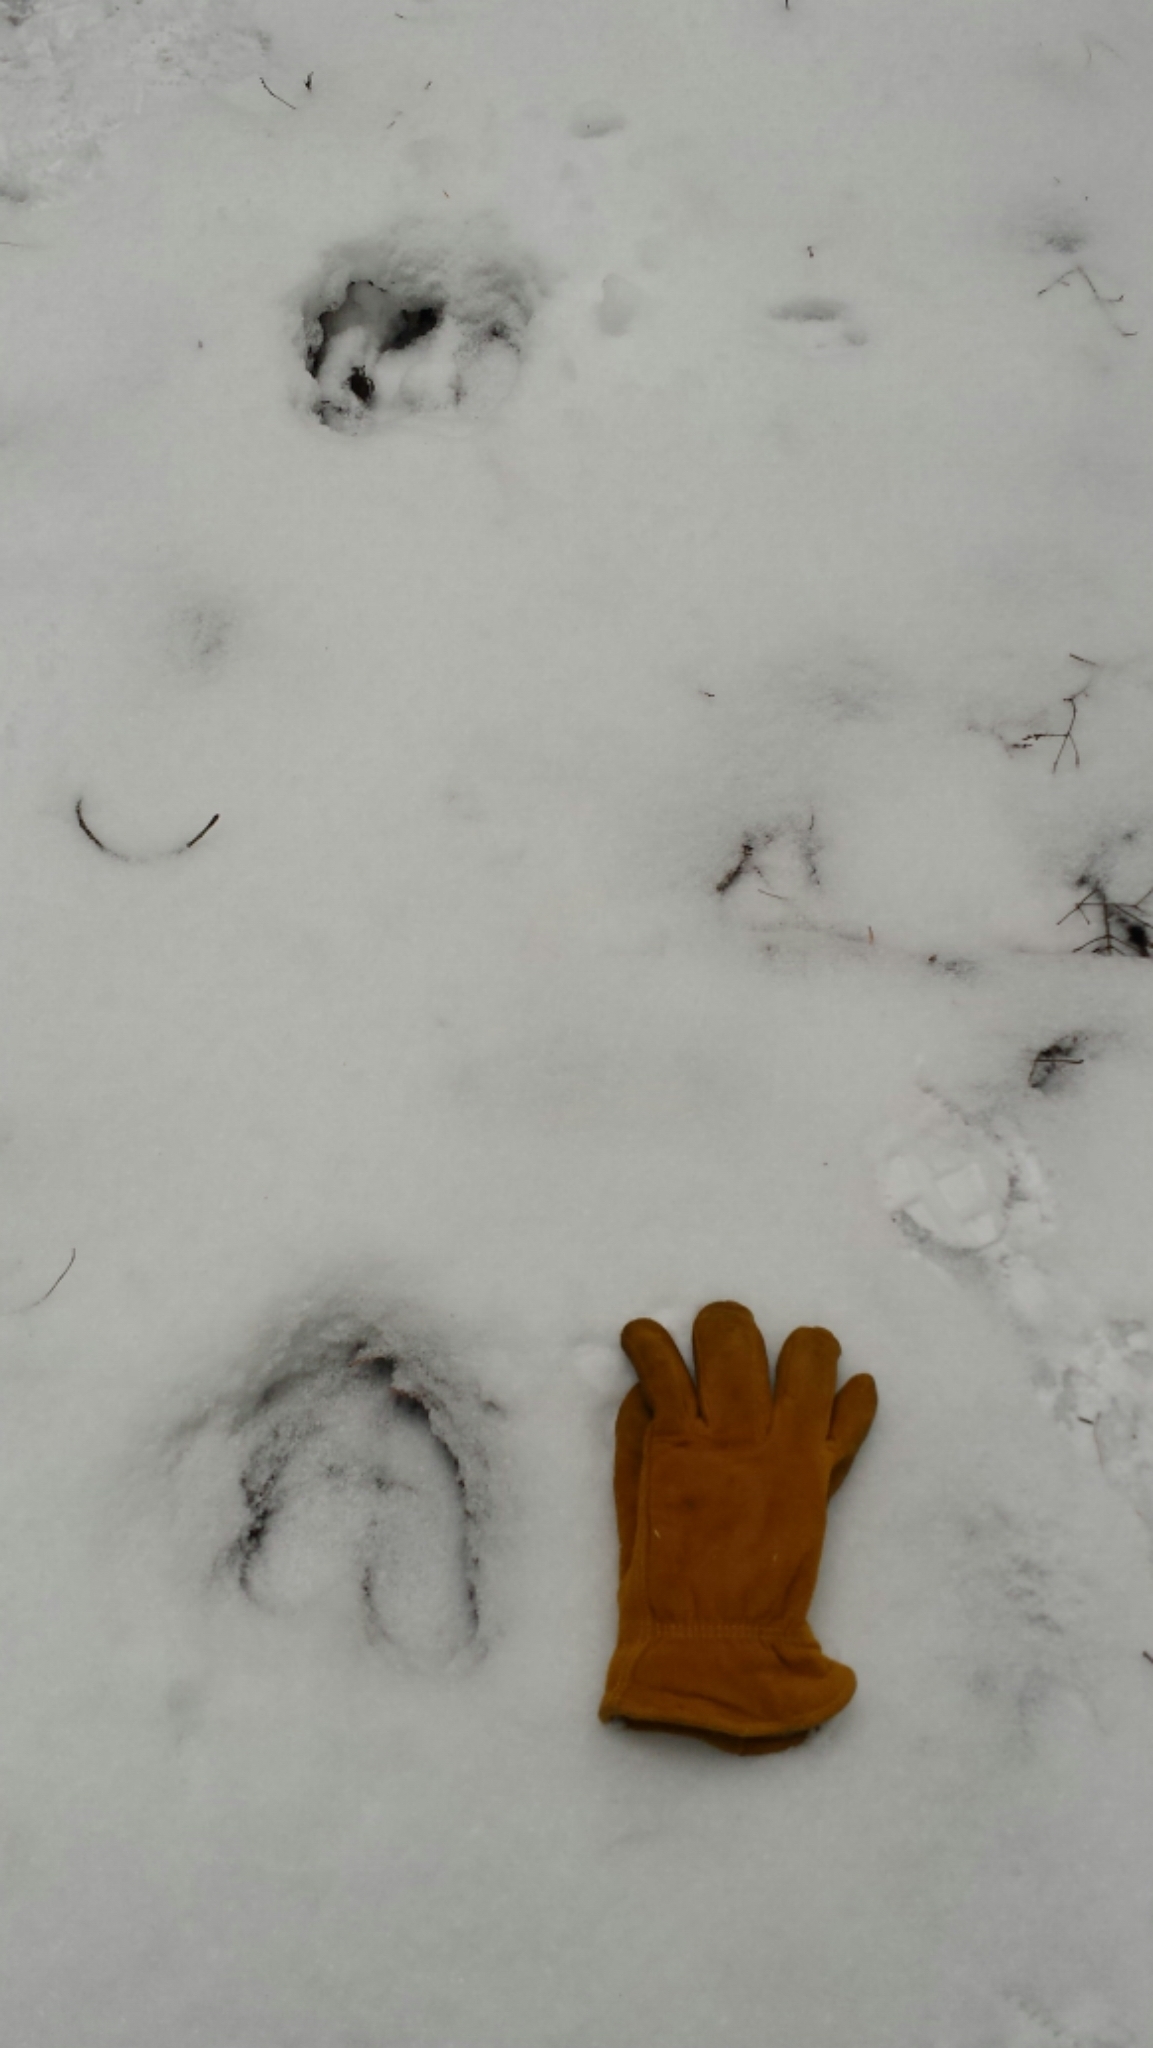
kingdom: Animalia
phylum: Chordata
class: Mammalia
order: Artiodactyla
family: Cervidae
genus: Alces
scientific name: Alces alces
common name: Moose
